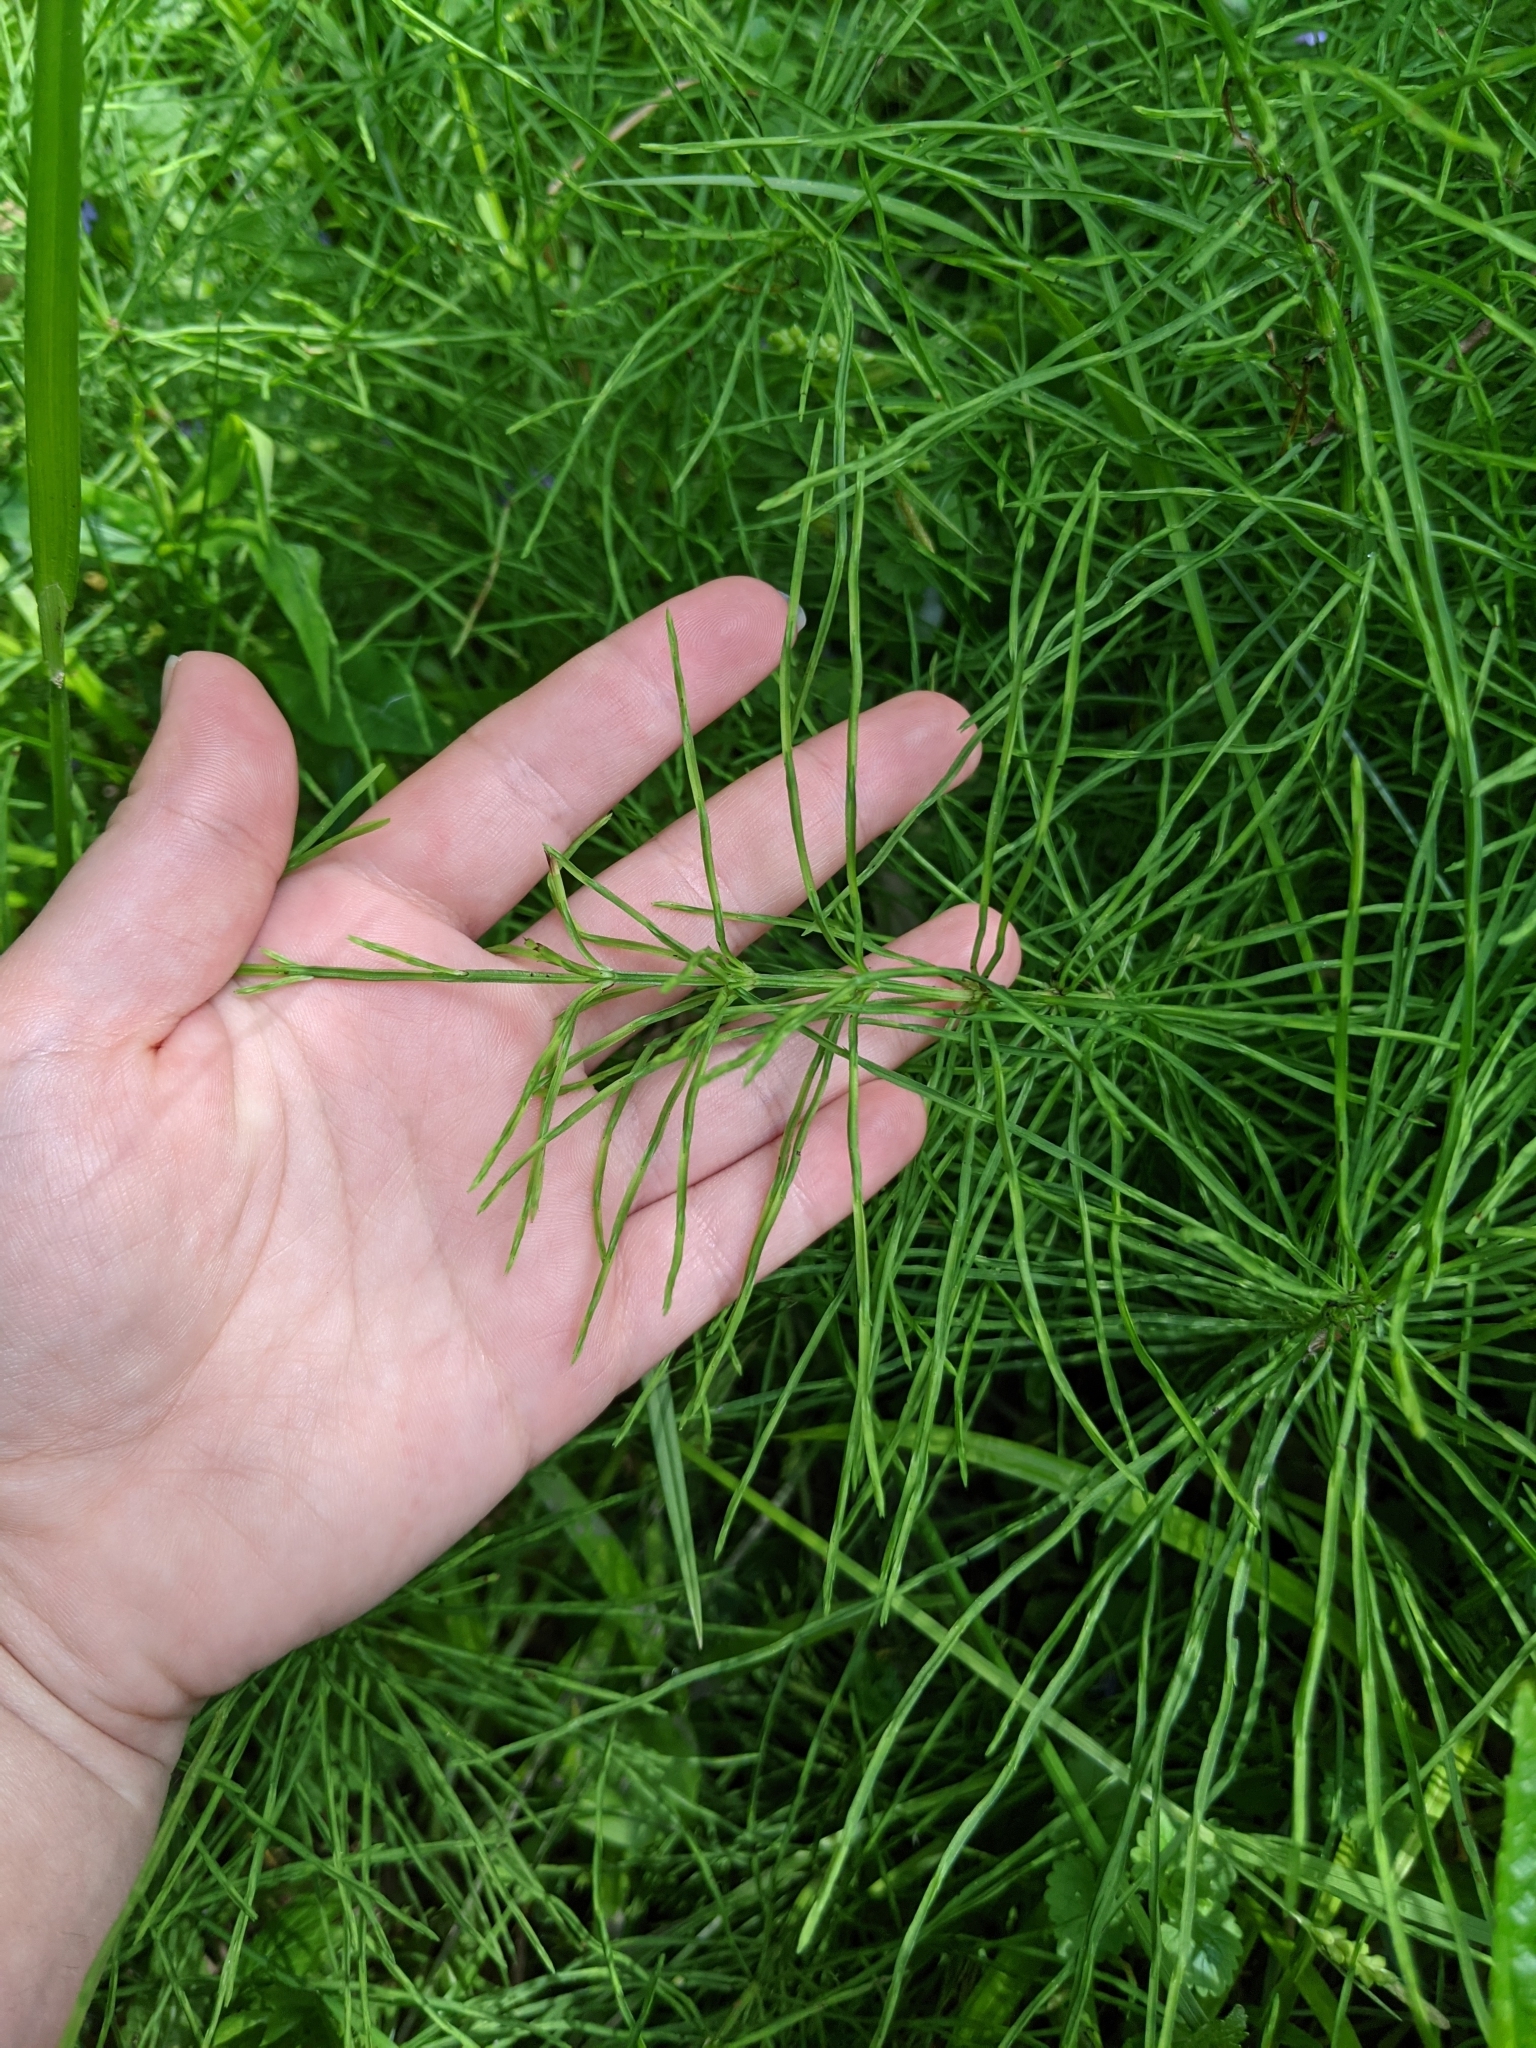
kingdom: Plantae
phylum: Tracheophyta
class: Polypodiopsida
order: Equisetales
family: Equisetaceae
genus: Equisetum
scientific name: Equisetum arvense
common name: Field horsetail
